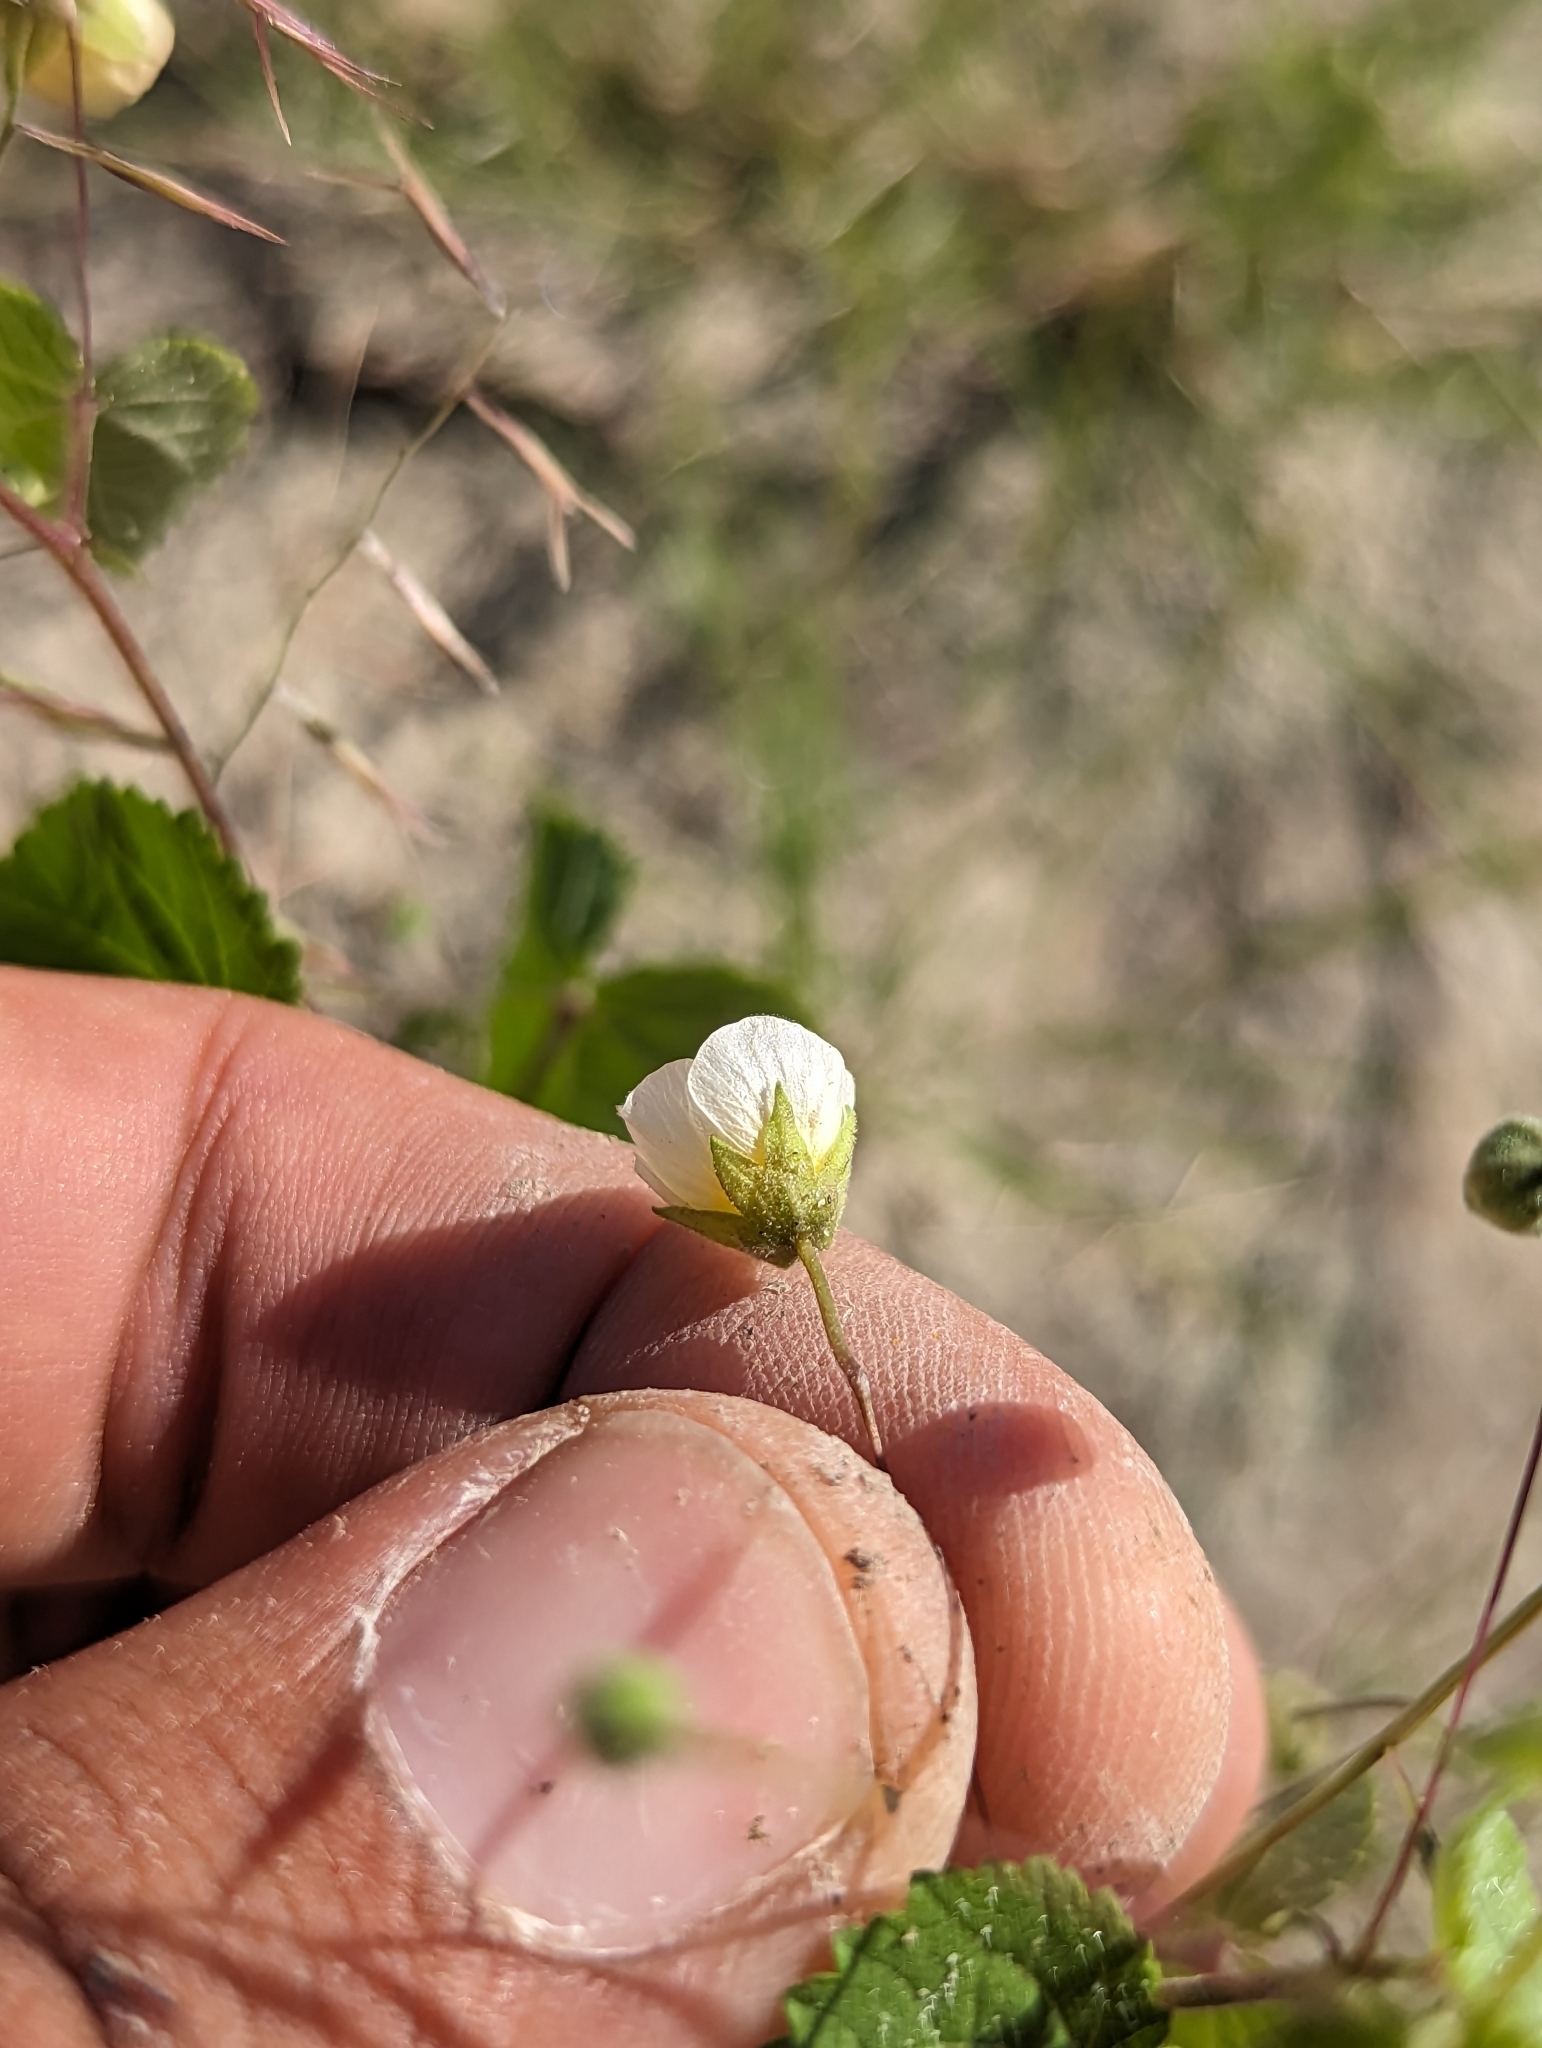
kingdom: Plantae
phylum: Tracheophyta
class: Magnoliopsida
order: Malvales
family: Malvaceae
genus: Herissantia
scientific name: Herissantia crispa
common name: Bladdermallow
